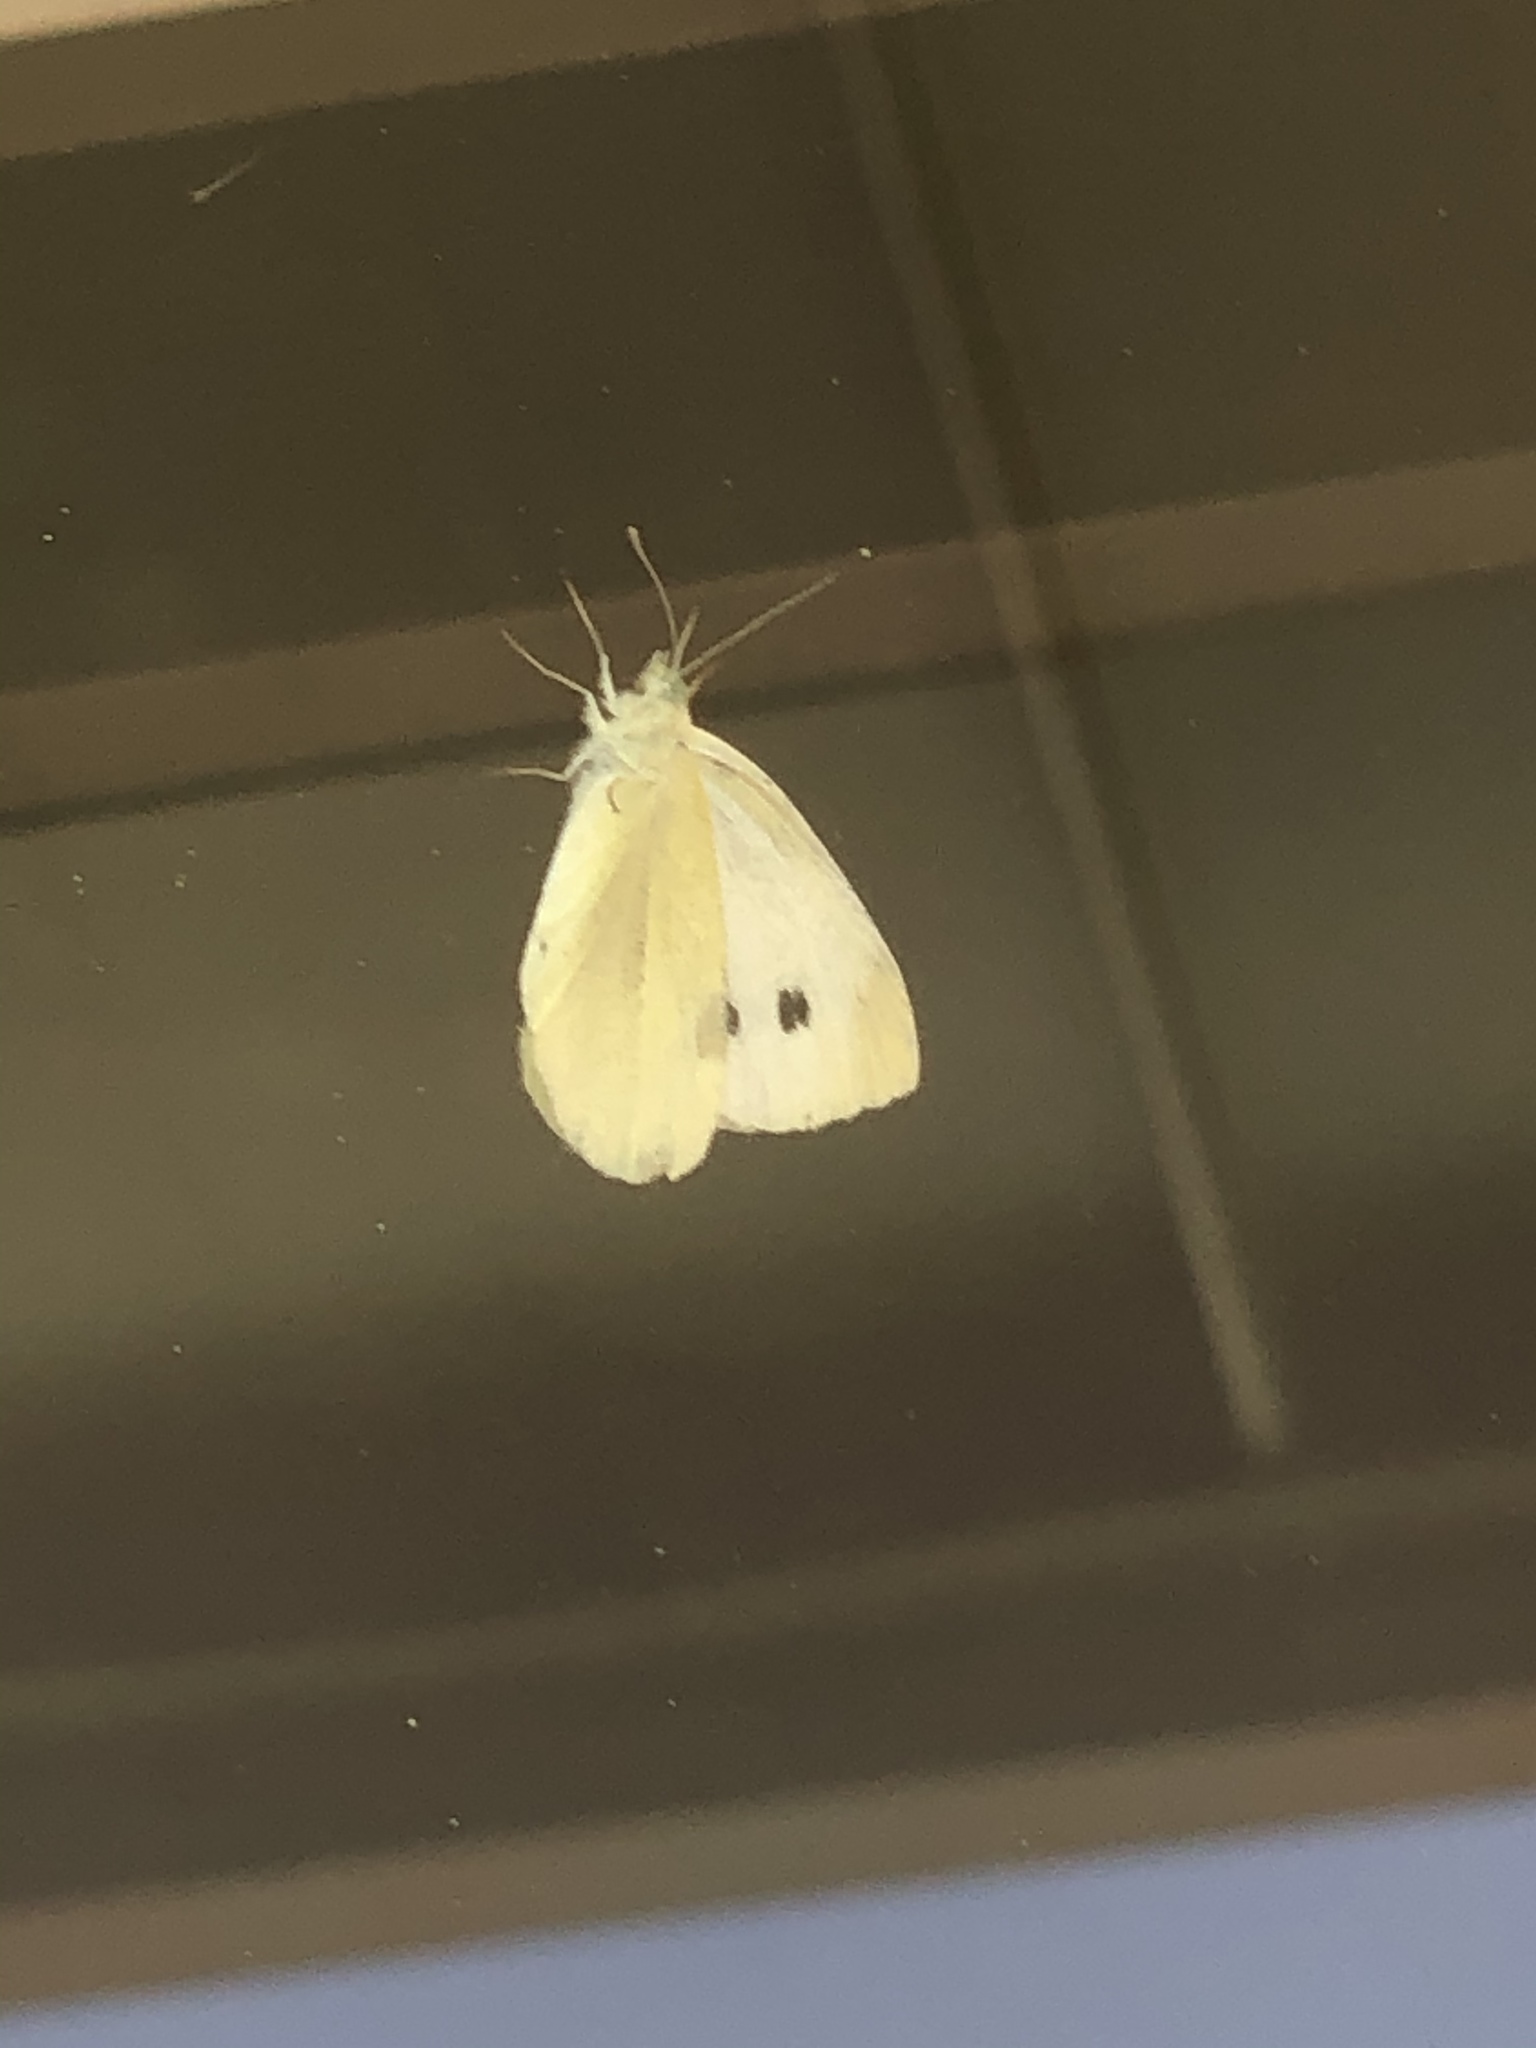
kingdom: Animalia
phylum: Arthropoda
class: Insecta
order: Lepidoptera
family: Pieridae
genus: Pieris
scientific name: Pieris rapae
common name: Small white
